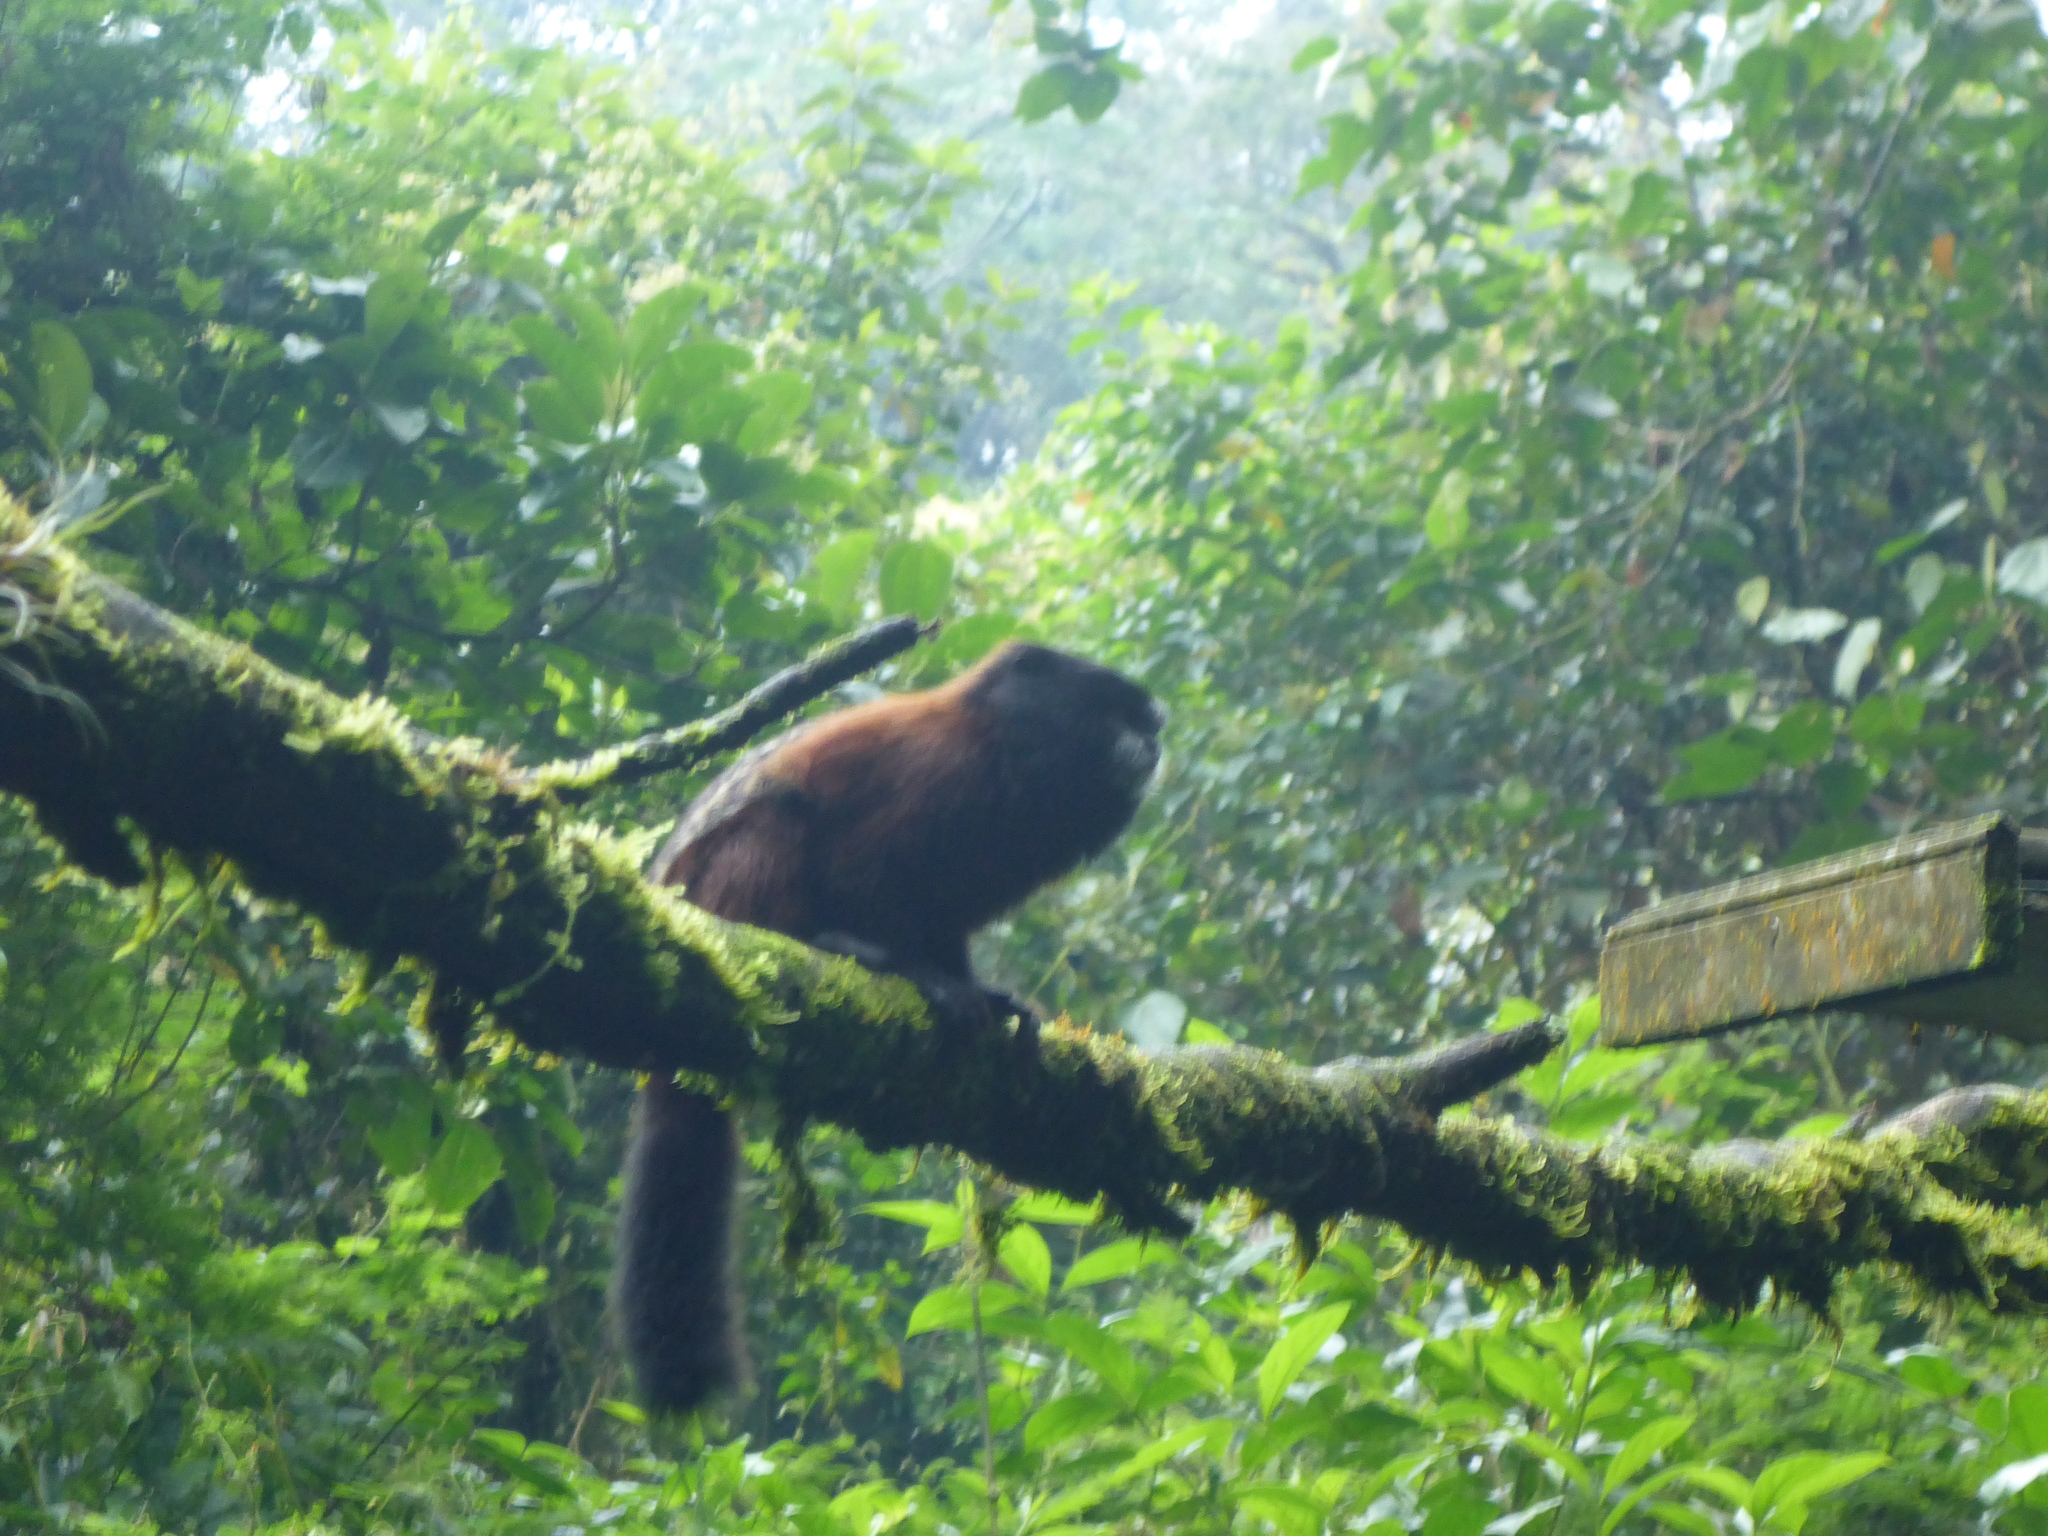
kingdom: Animalia
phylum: Chordata
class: Mammalia
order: Primates
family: Callitrichidae
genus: Leontocebus
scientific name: Leontocebus lagonotus
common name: Red-mantled saddle-back tamarin
